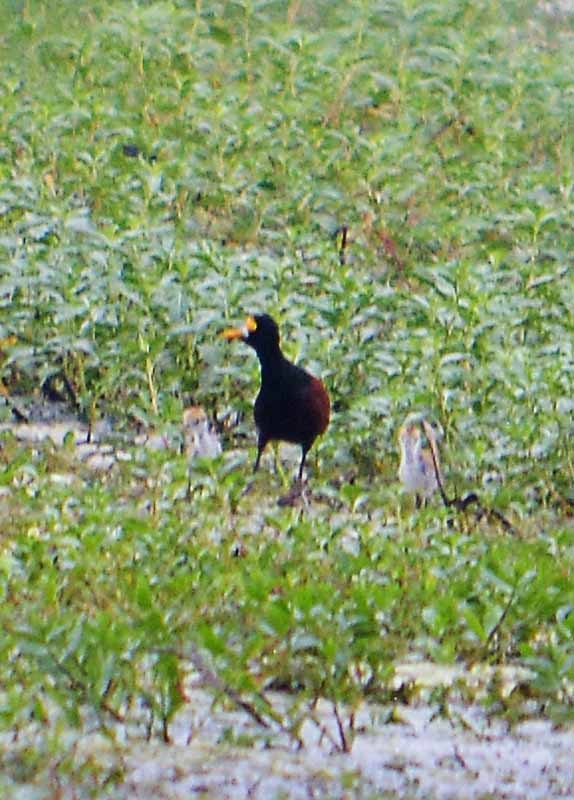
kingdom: Animalia
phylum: Chordata
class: Aves
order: Charadriiformes
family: Jacanidae
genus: Jacana
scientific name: Jacana spinosa
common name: Northern jacana
